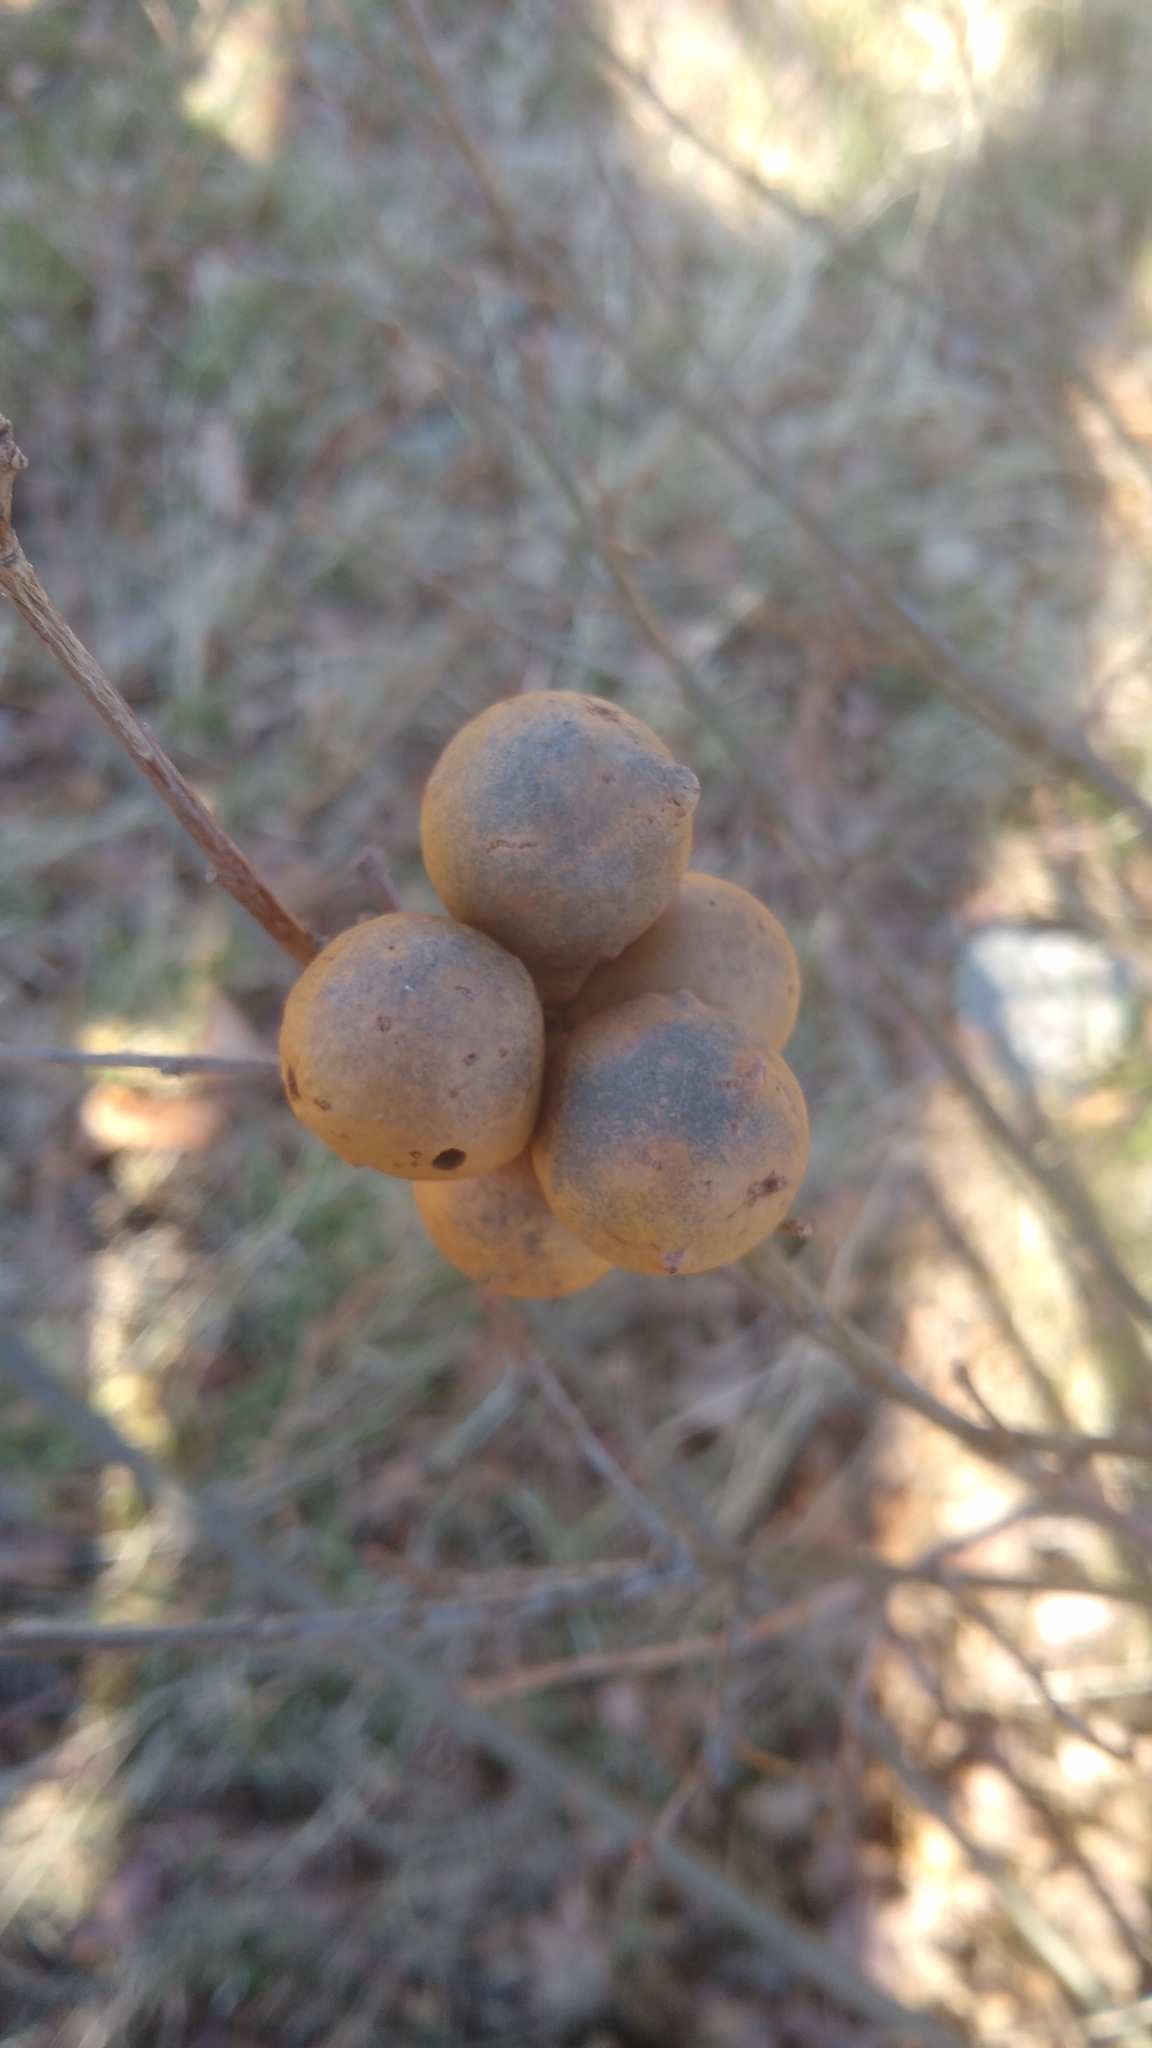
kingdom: Animalia
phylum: Arthropoda
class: Insecta
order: Hymenoptera
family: Cynipidae
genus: Andricus
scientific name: Andricus kollari
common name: Marble gall
